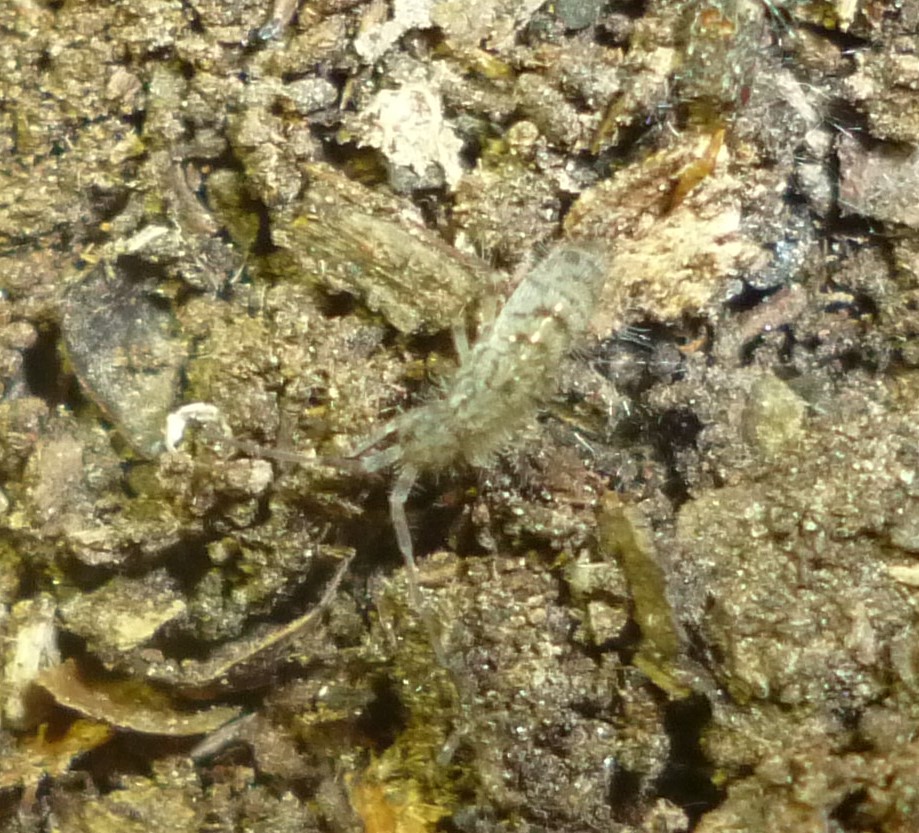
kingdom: Animalia
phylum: Arthropoda
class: Collembola
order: Entomobryomorpha
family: Orchesellidae
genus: Orchesella
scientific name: Orchesella villosa
